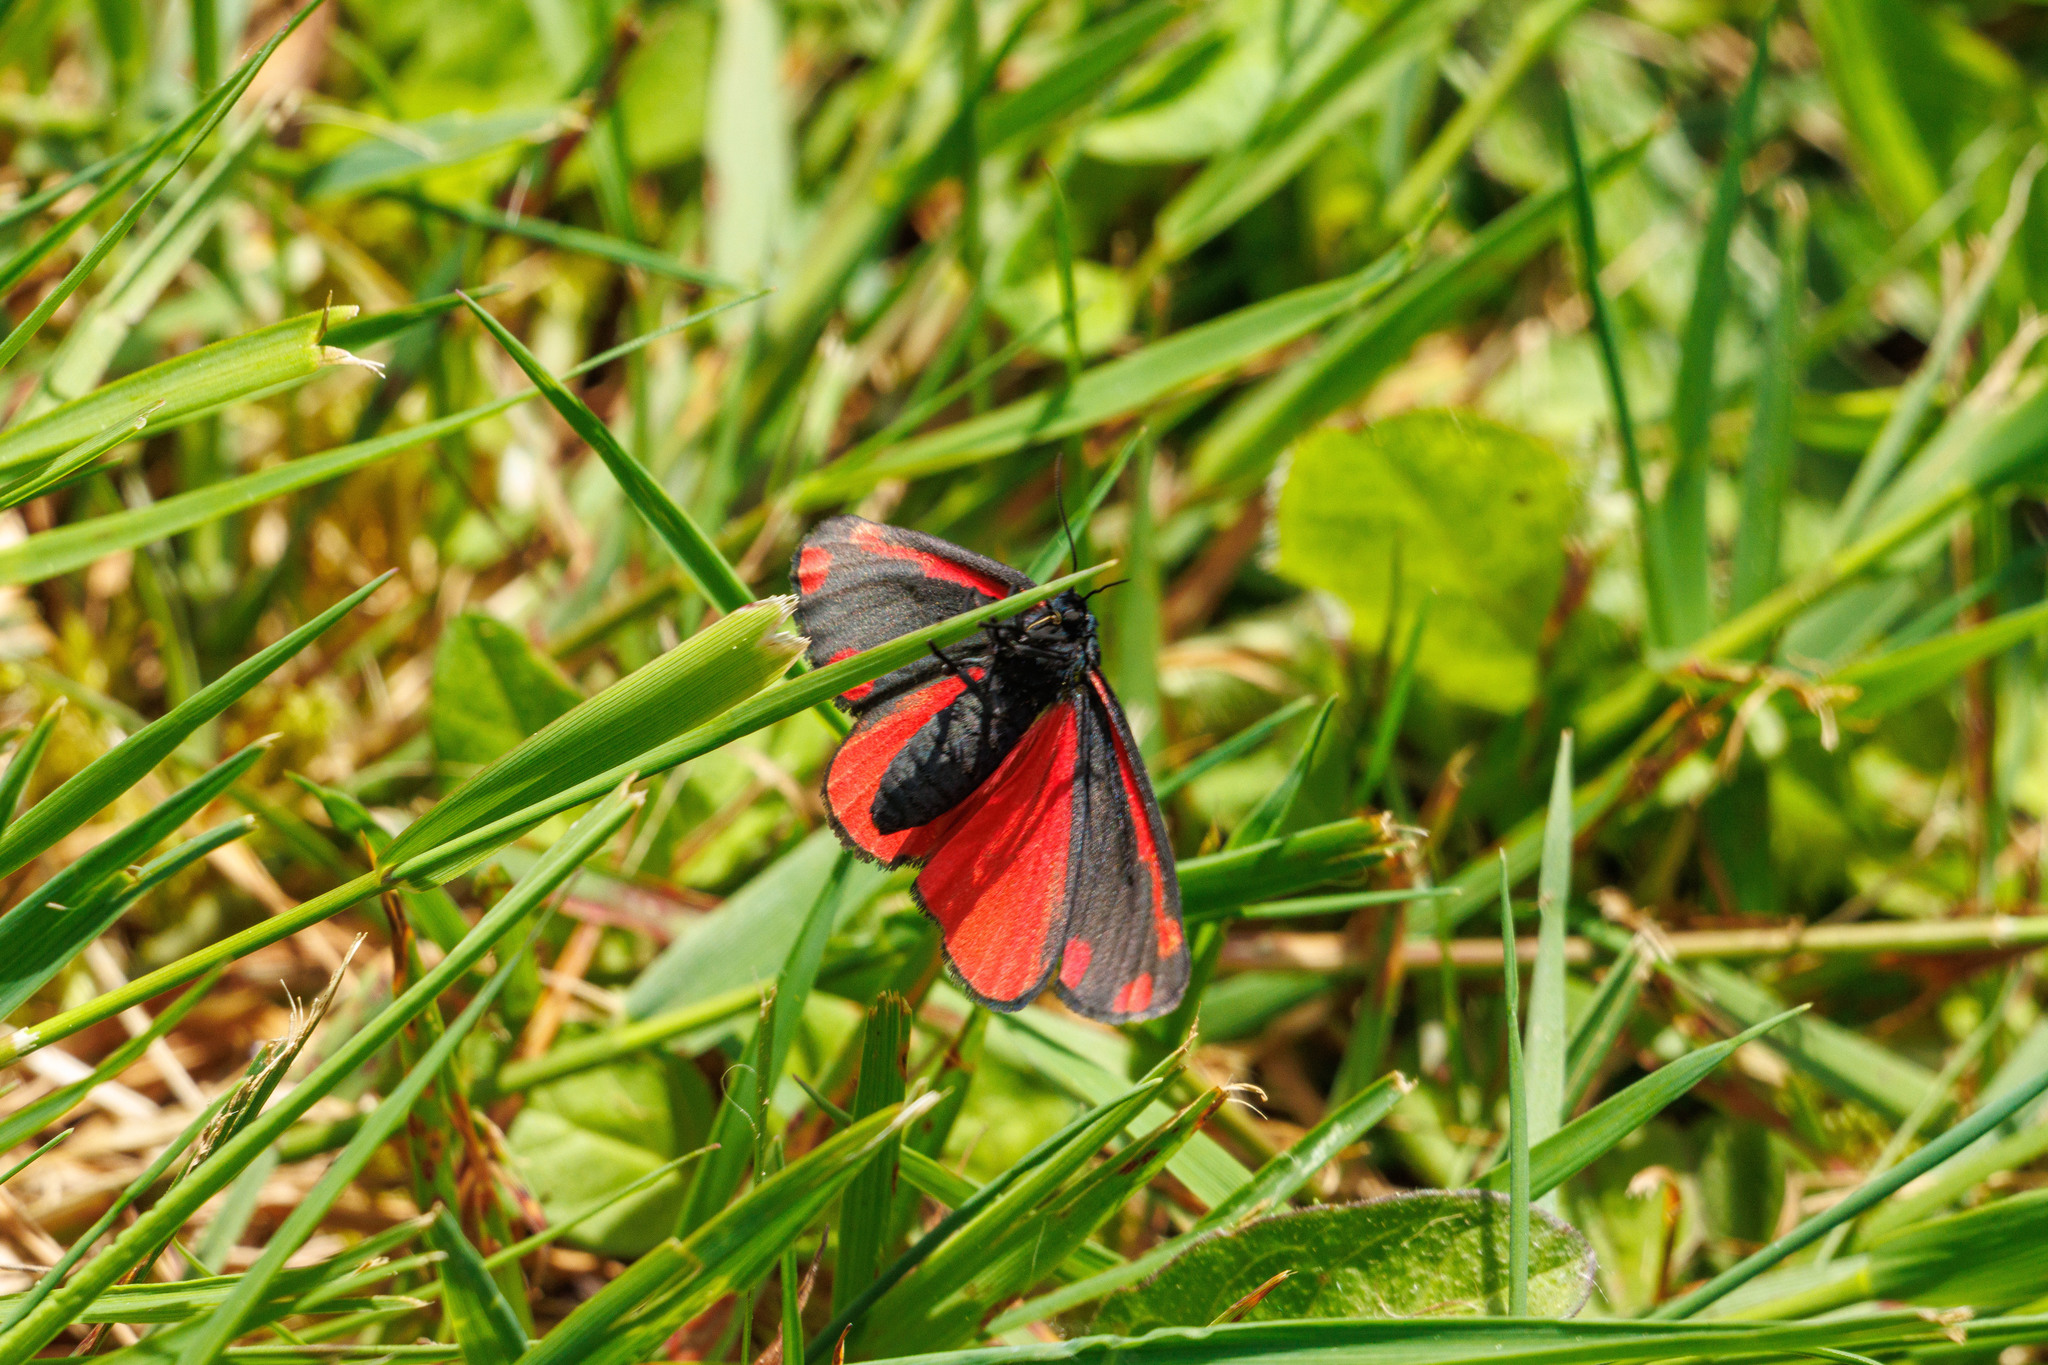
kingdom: Animalia
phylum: Arthropoda
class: Insecta
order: Lepidoptera
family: Erebidae
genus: Tyria
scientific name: Tyria jacobaeae
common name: Cinnabar
